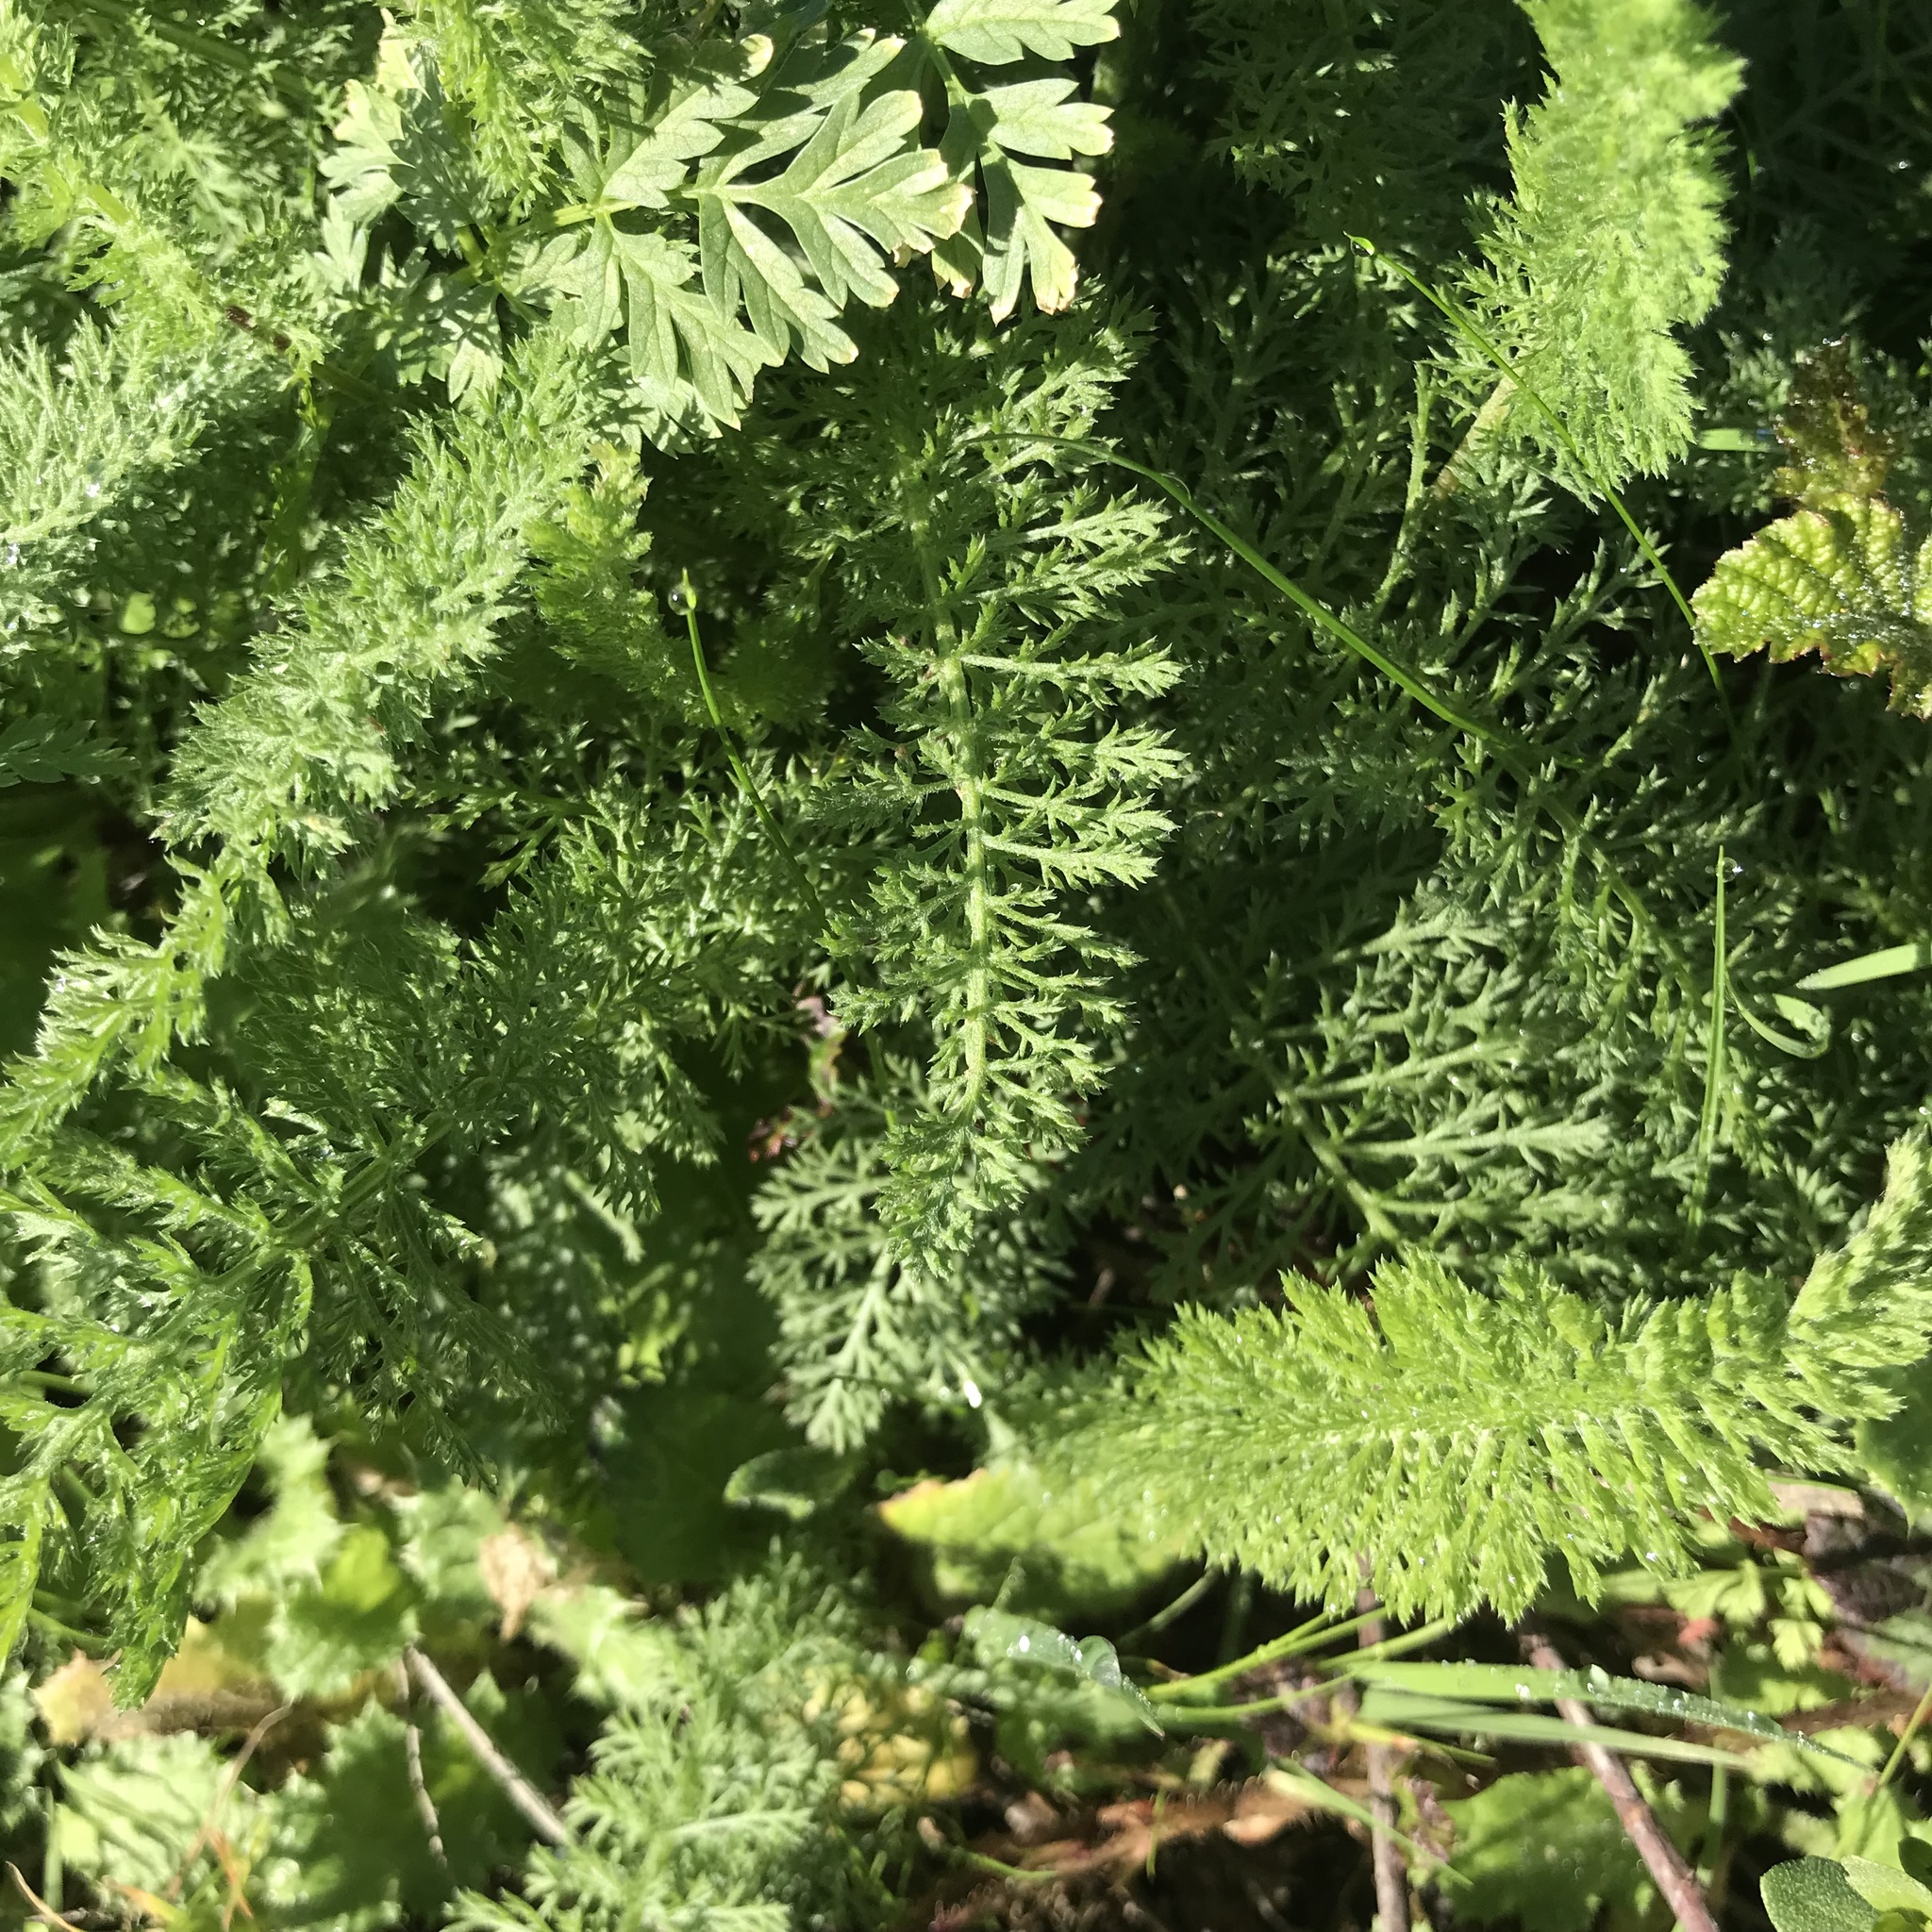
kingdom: Plantae
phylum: Tracheophyta
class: Magnoliopsida
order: Asterales
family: Asteraceae
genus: Achillea
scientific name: Achillea millefolium
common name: Yarrow
